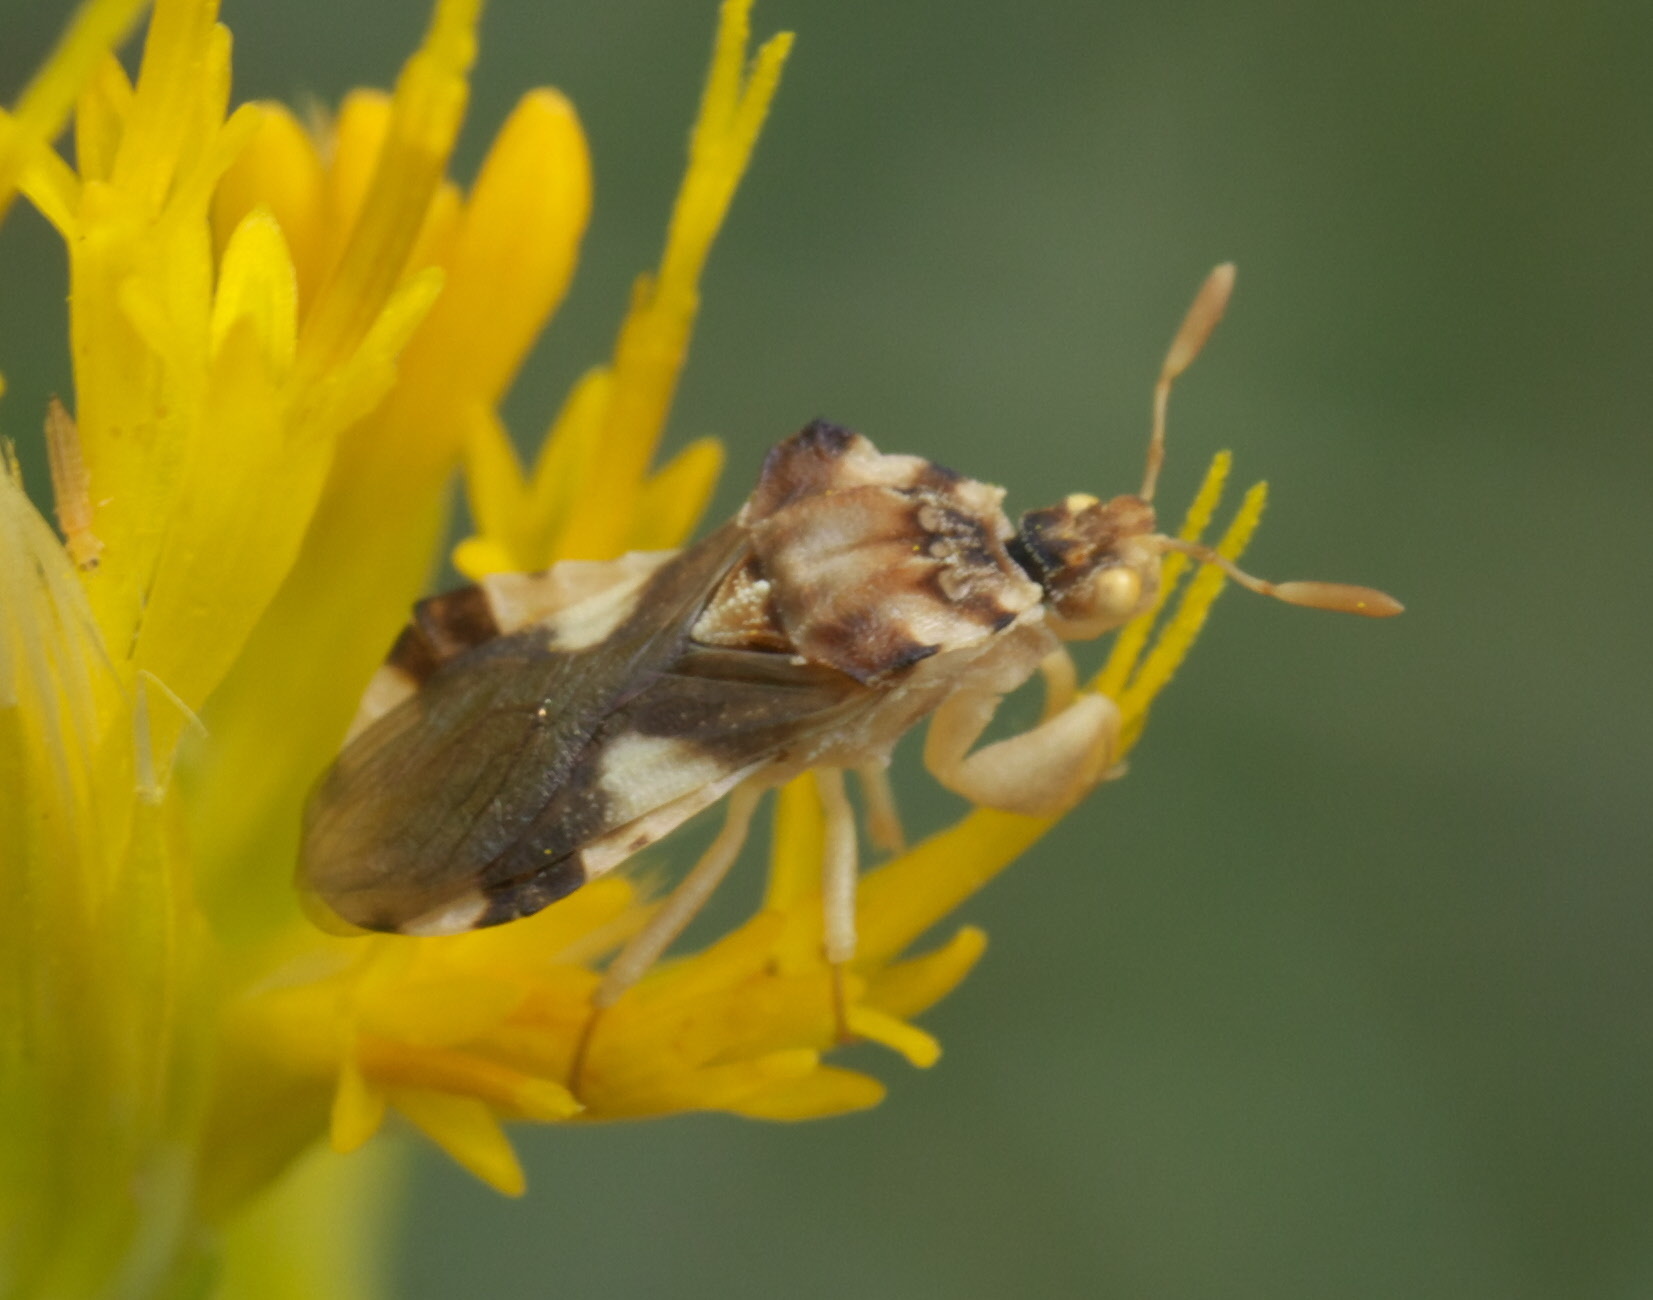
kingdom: Animalia
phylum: Arthropoda
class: Insecta
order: Hemiptera
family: Reduviidae
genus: Phymata
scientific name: Phymata borica
